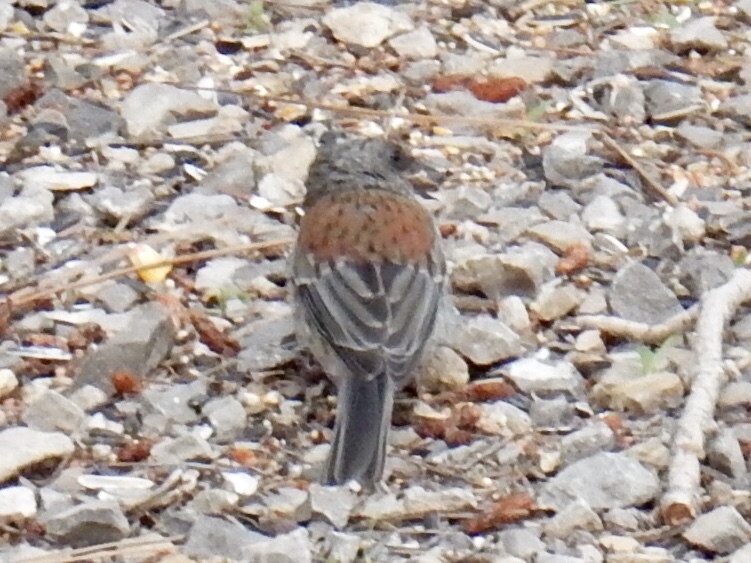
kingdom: Animalia
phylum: Chordata
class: Aves
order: Passeriformes
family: Passerellidae
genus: Junco
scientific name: Junco hyemalis
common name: Dark-eyed junco
